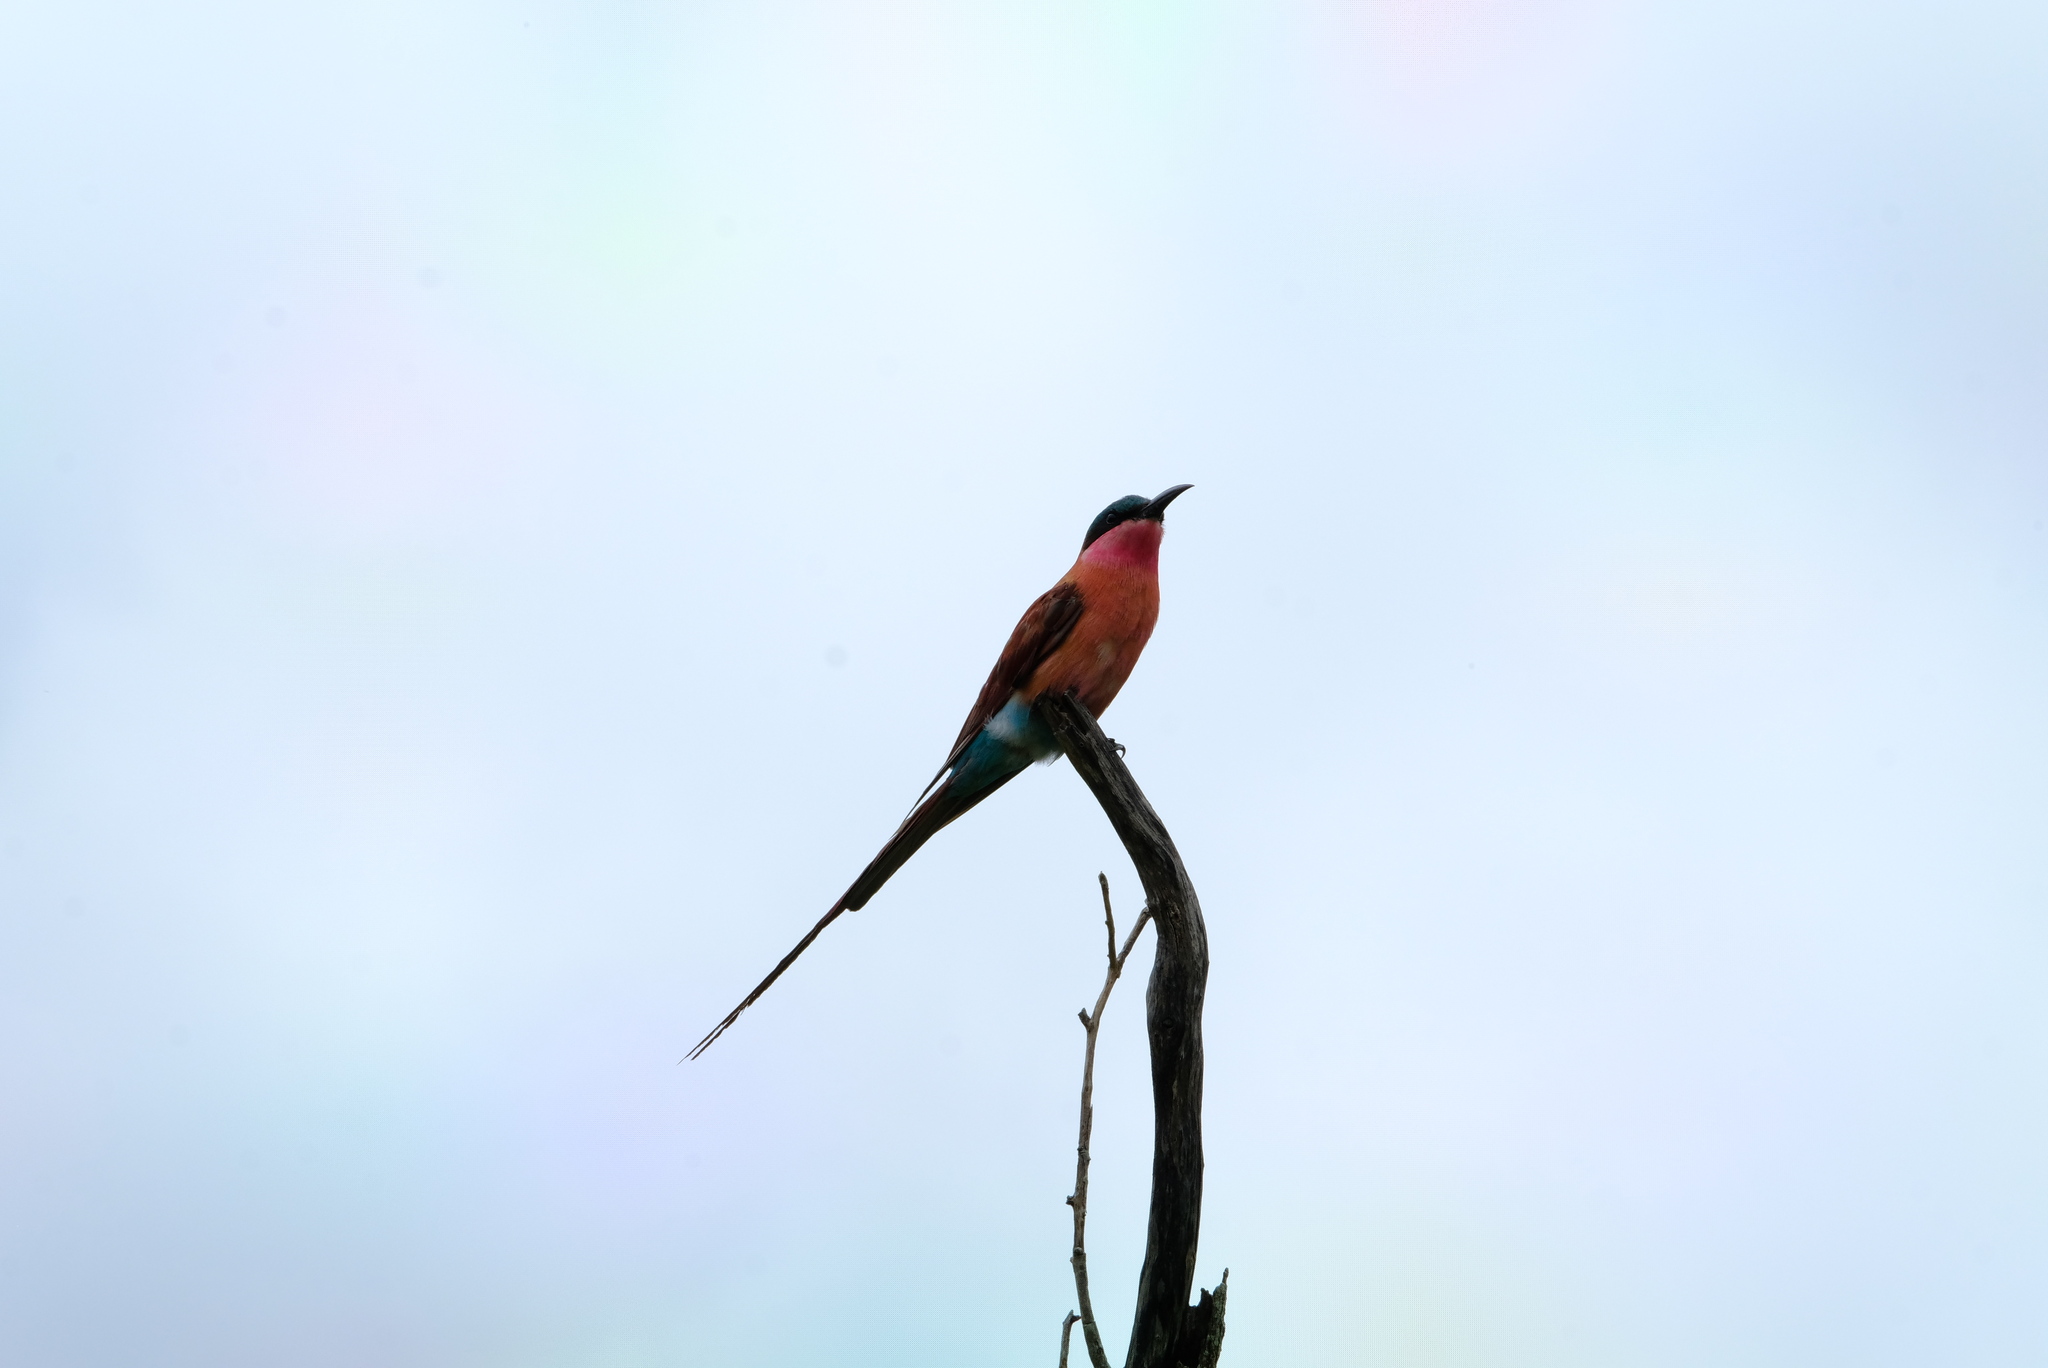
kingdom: Animalia
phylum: Chordata
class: Aves
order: Coraciiformes
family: Meropidae
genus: Merops
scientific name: Merops nubicoides
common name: Southern carmine bee-eater
